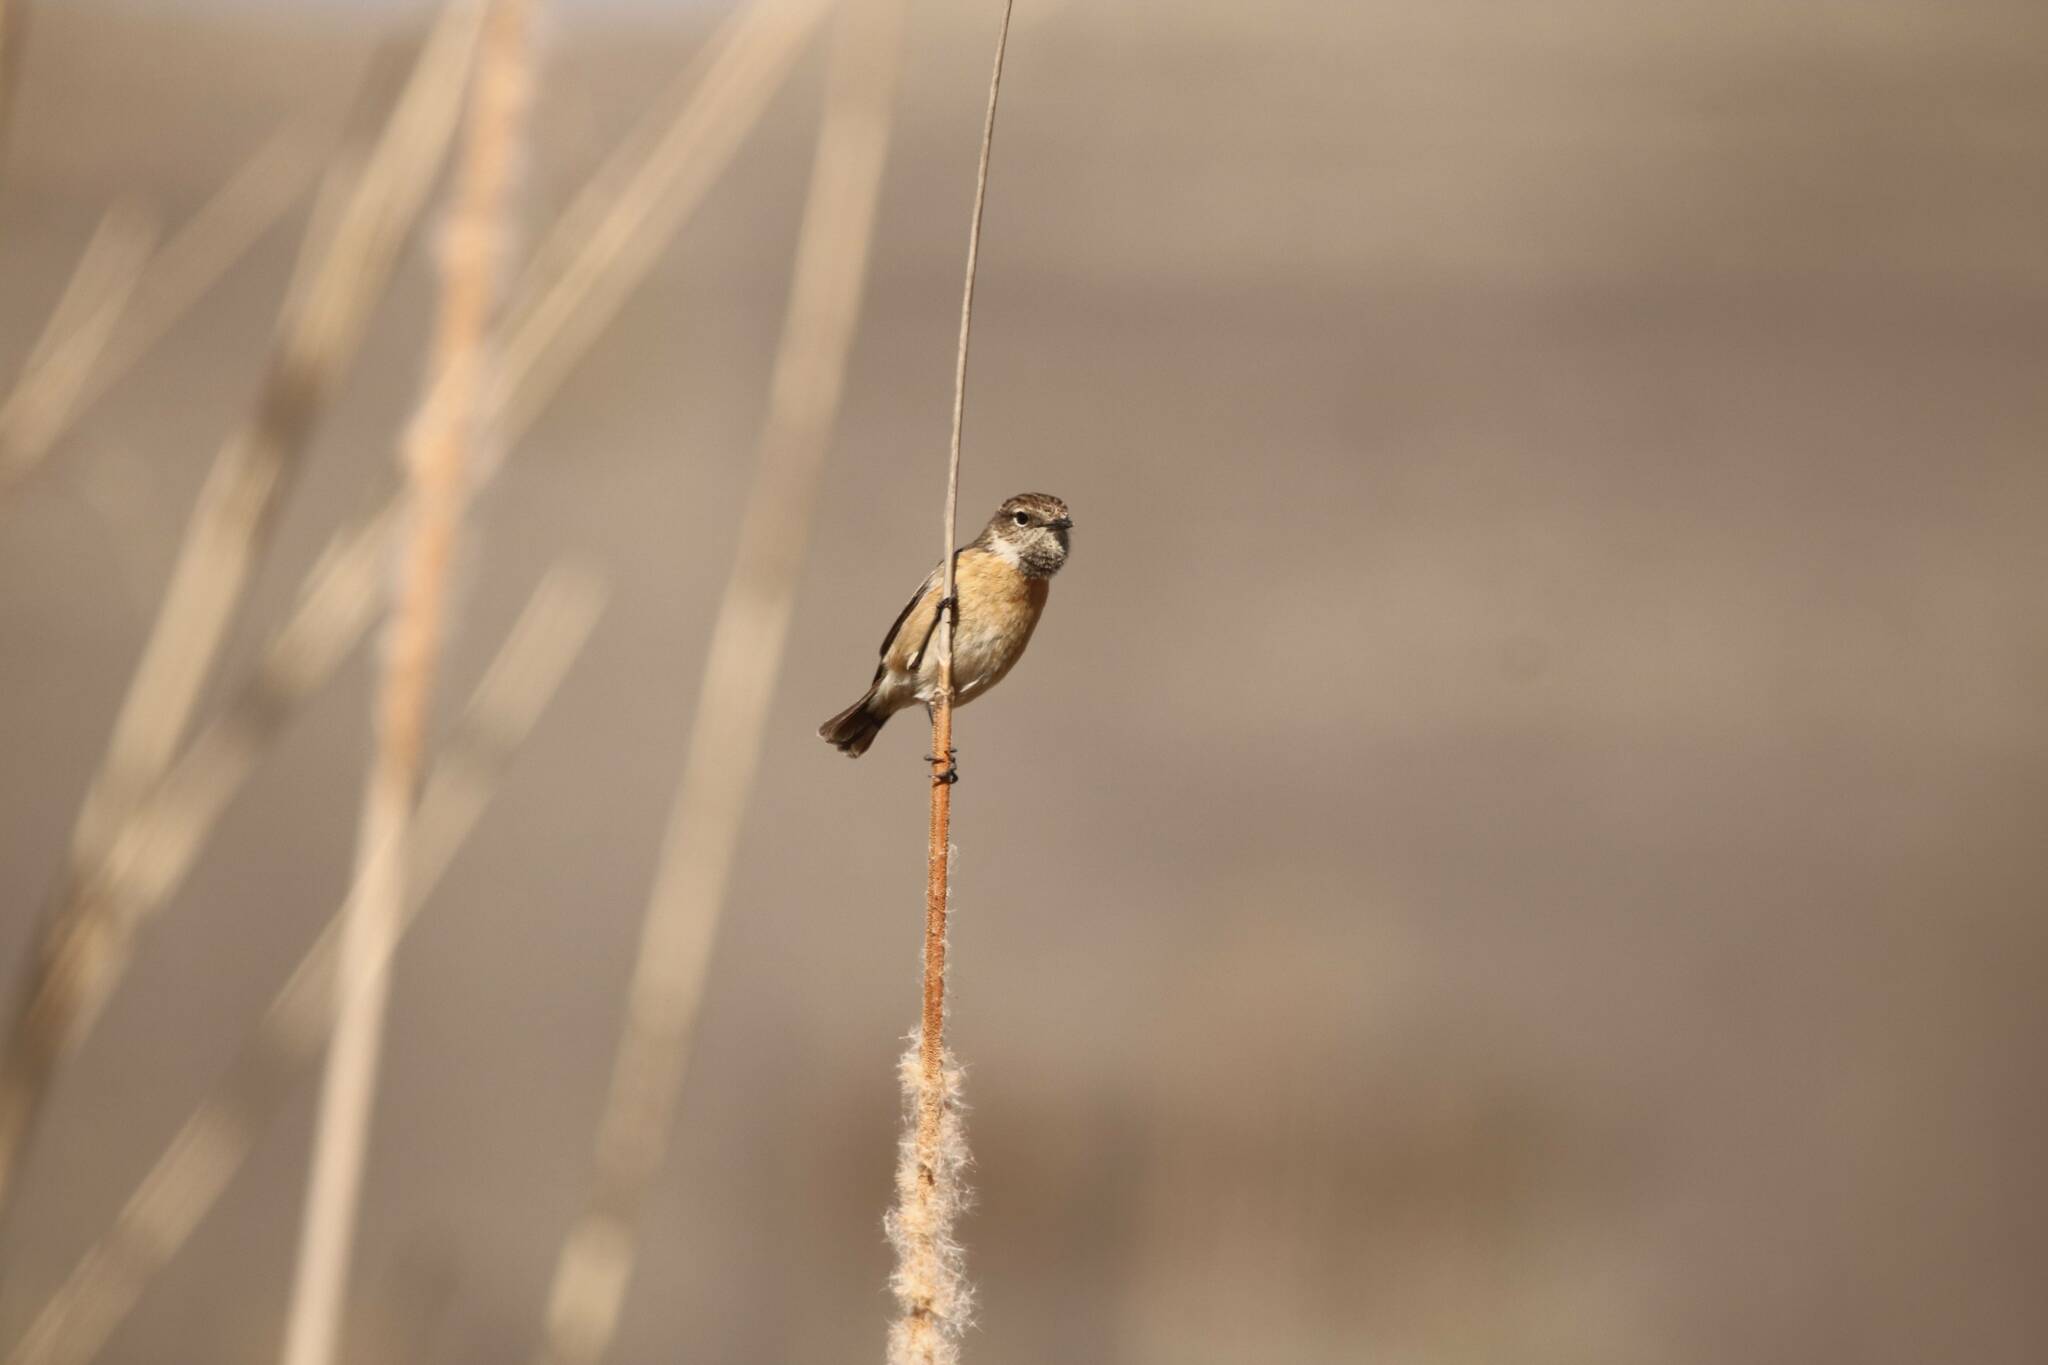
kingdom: Animalia
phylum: Chordata
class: Aves
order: Passeriformes
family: Muscicapidae
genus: Saxicola
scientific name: Saxicola rubicola
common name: European stonechat
